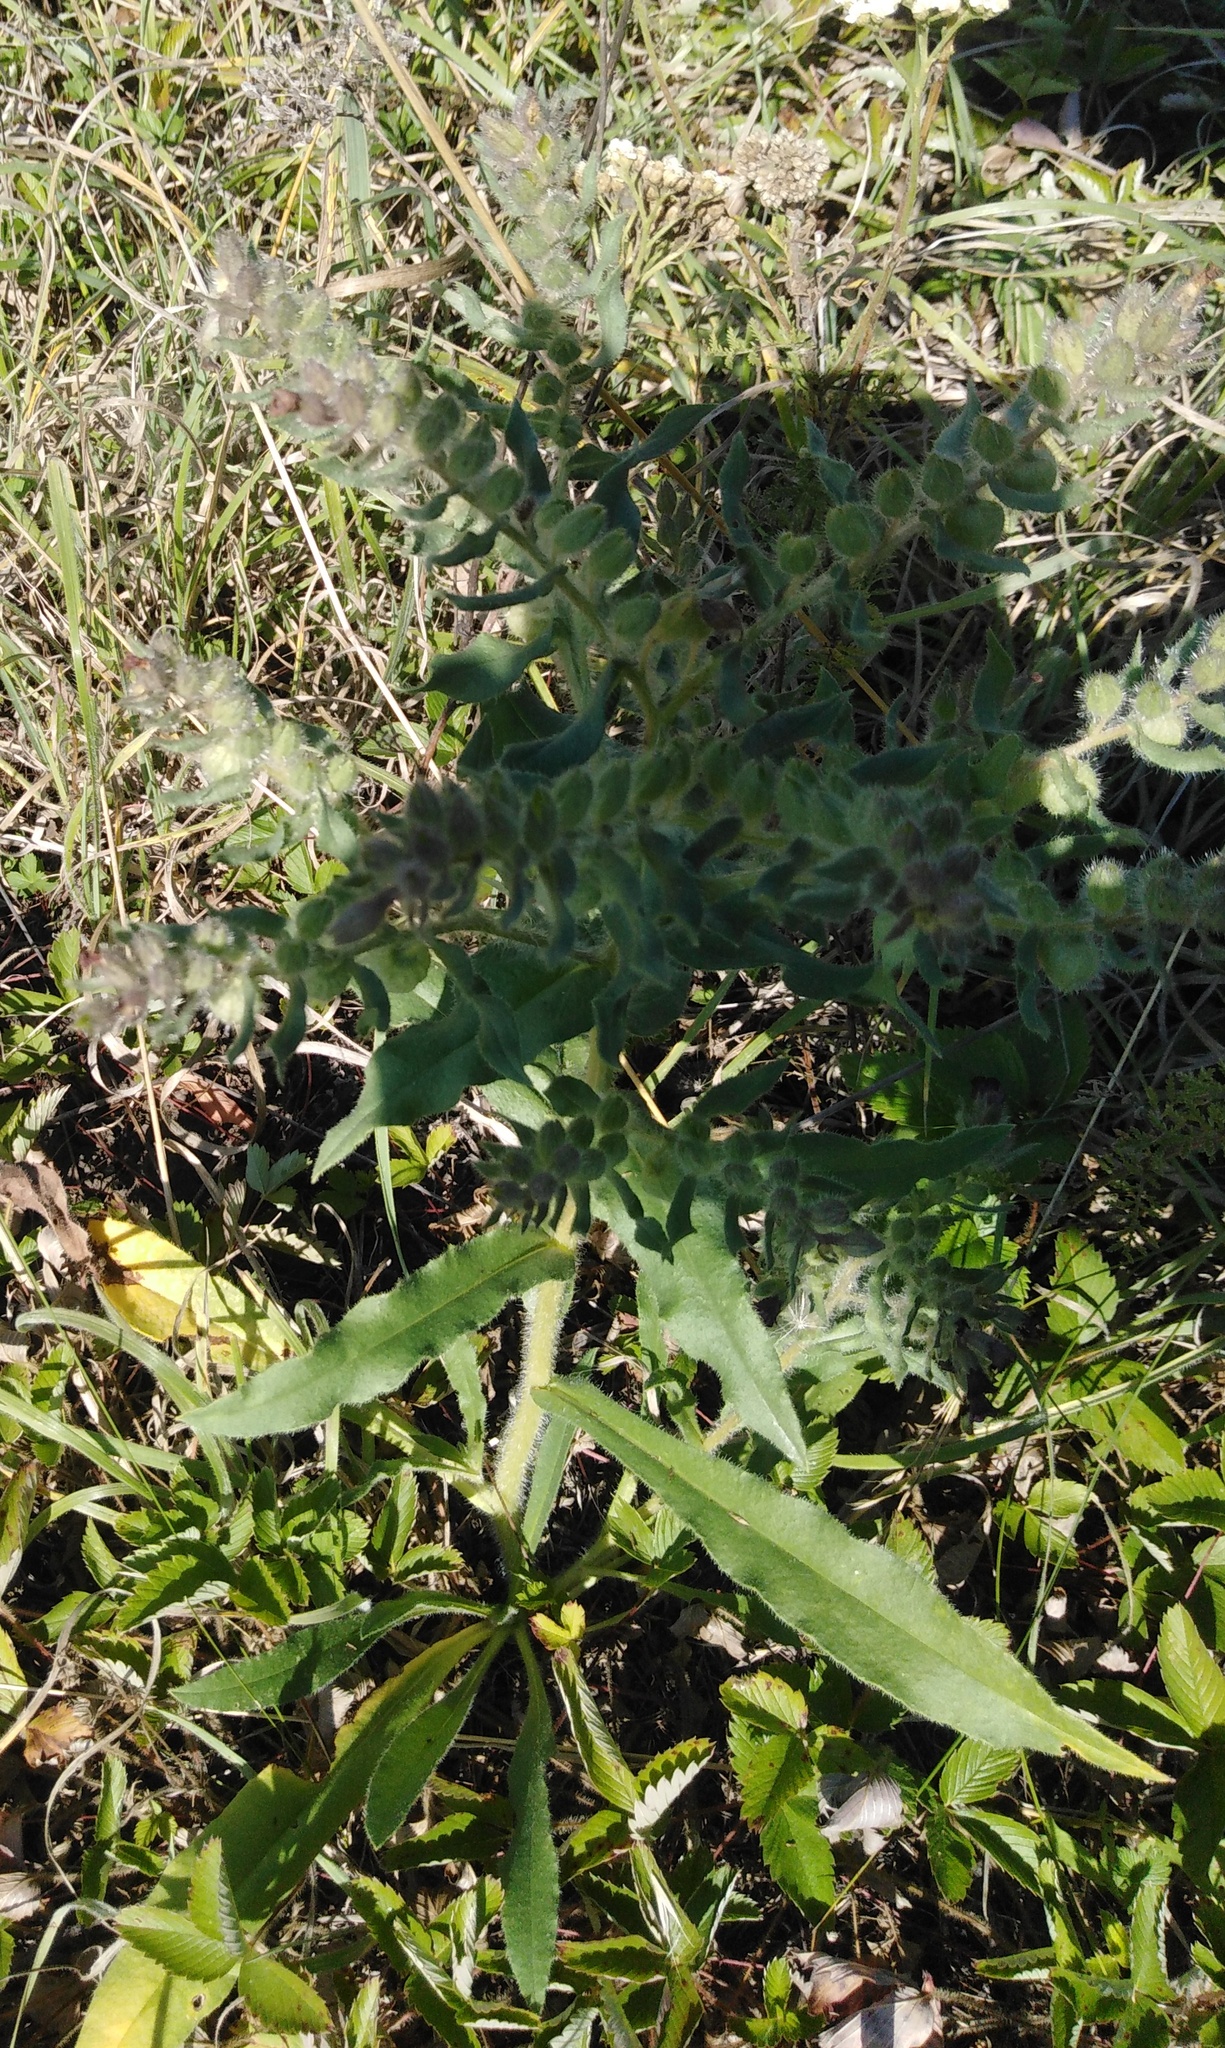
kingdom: Plantae
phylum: Tracheophyta
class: Magnoliopsida
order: Boraginales
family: Boraginaceae
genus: Nonea
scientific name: Nonea pulla
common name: Brown nonea
